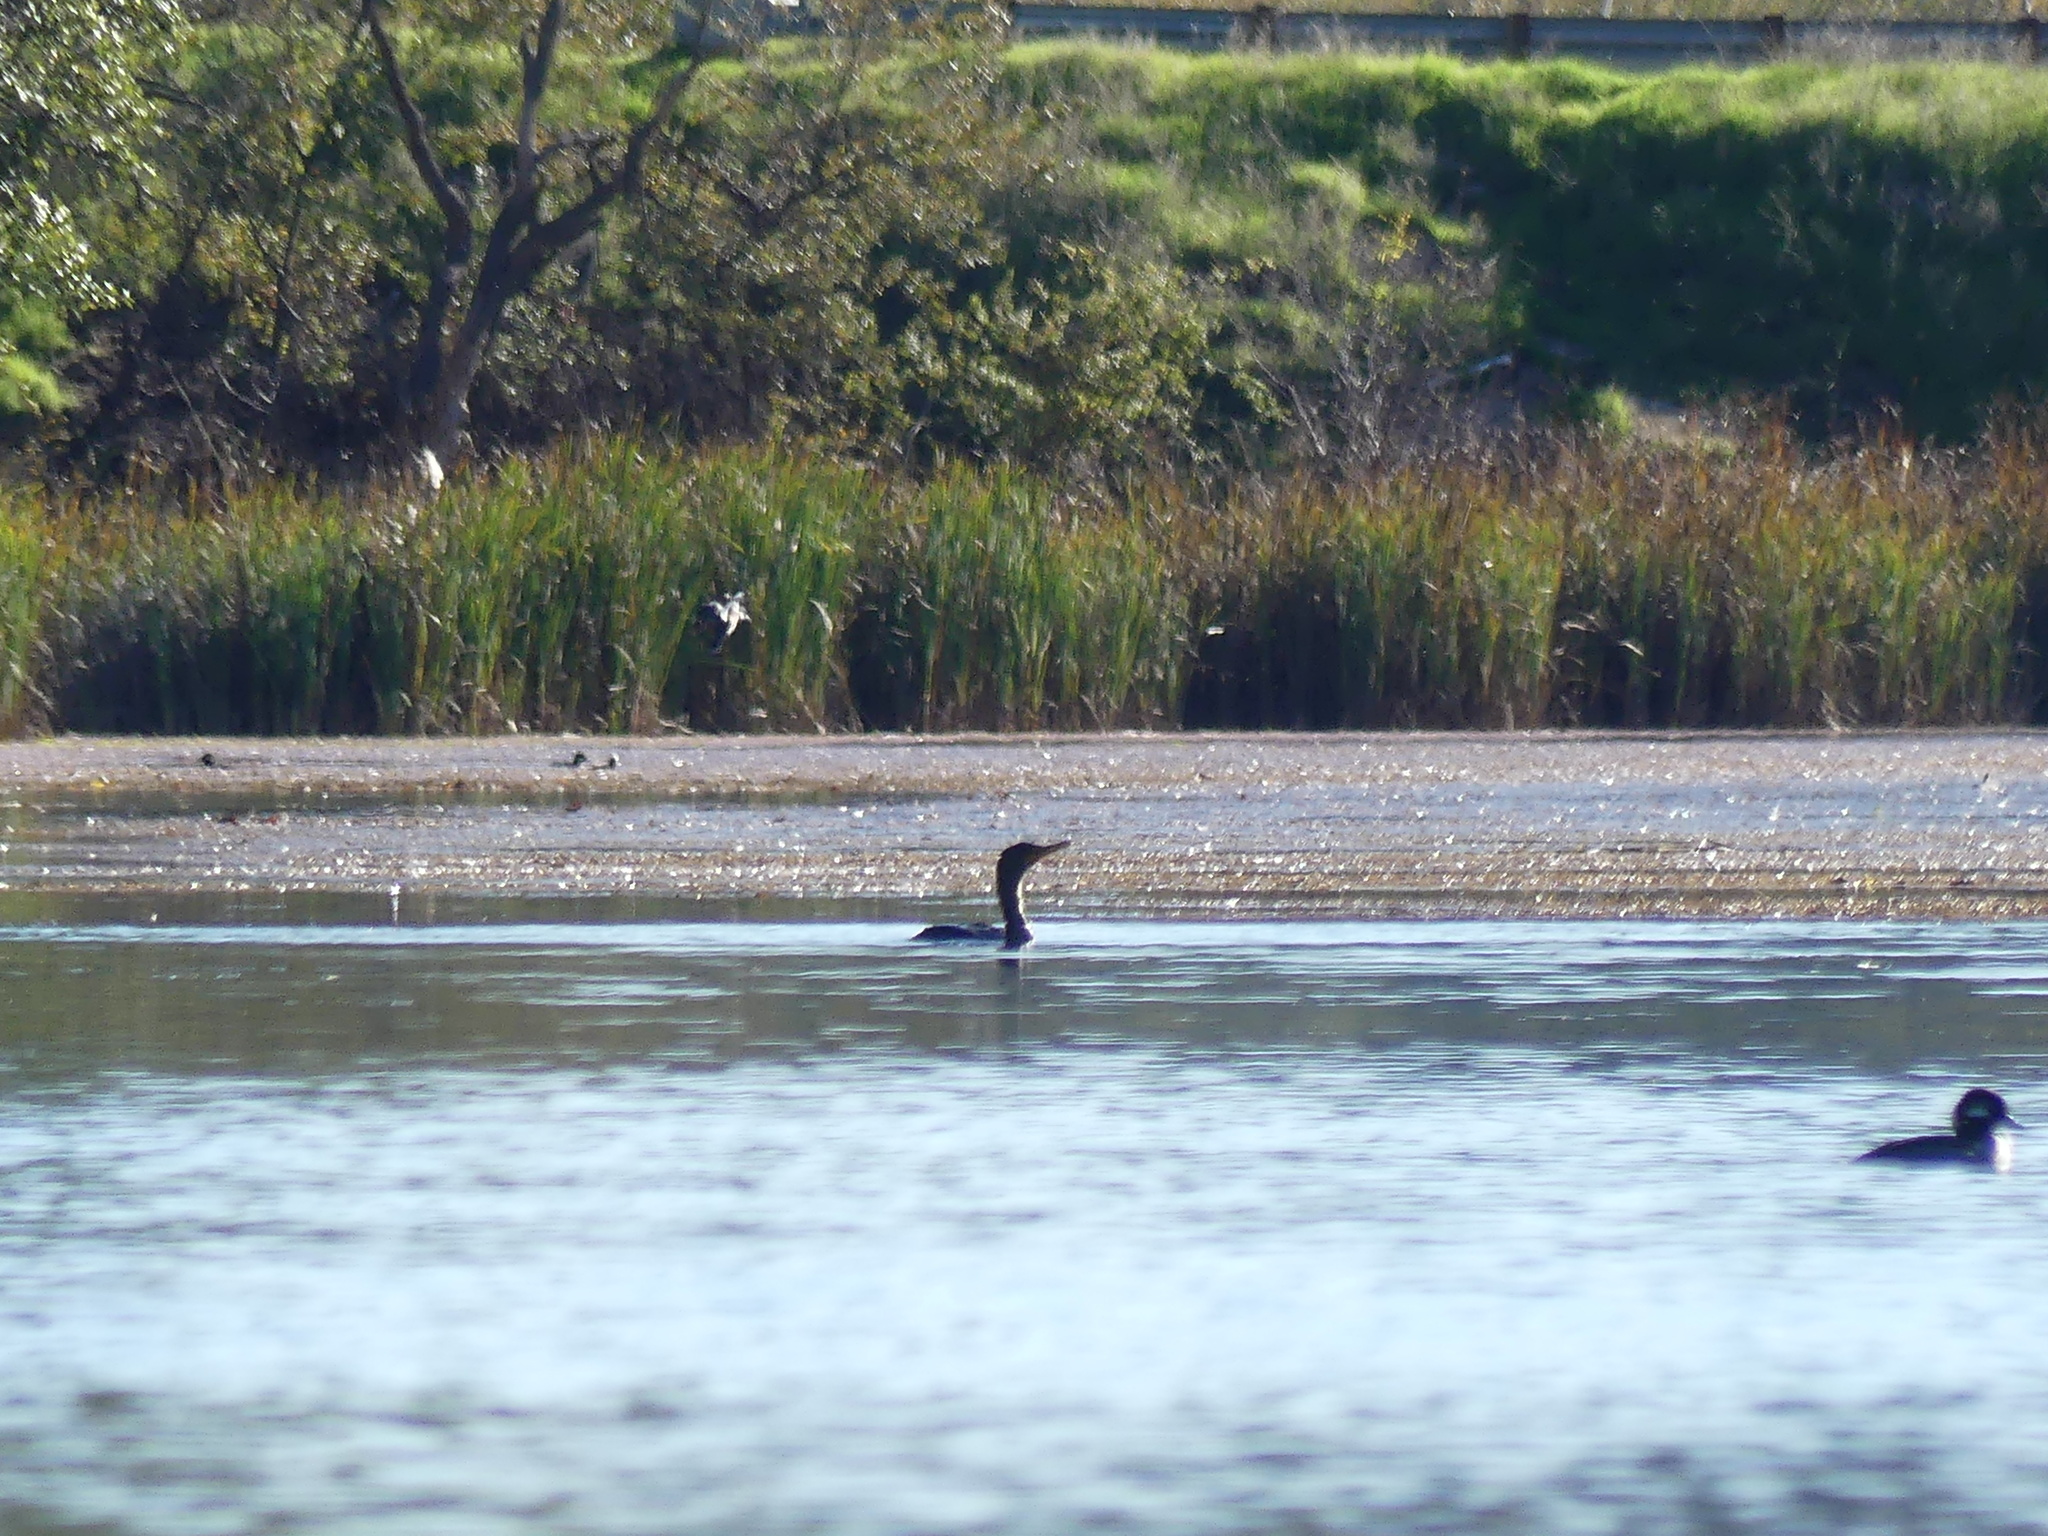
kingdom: Animalia
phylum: Chordata
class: Aves
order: Suliformes
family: Phalacrocoracidae
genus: Phalacrocorax
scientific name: Phalacrocorax auritus
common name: Double-crested cormorant
